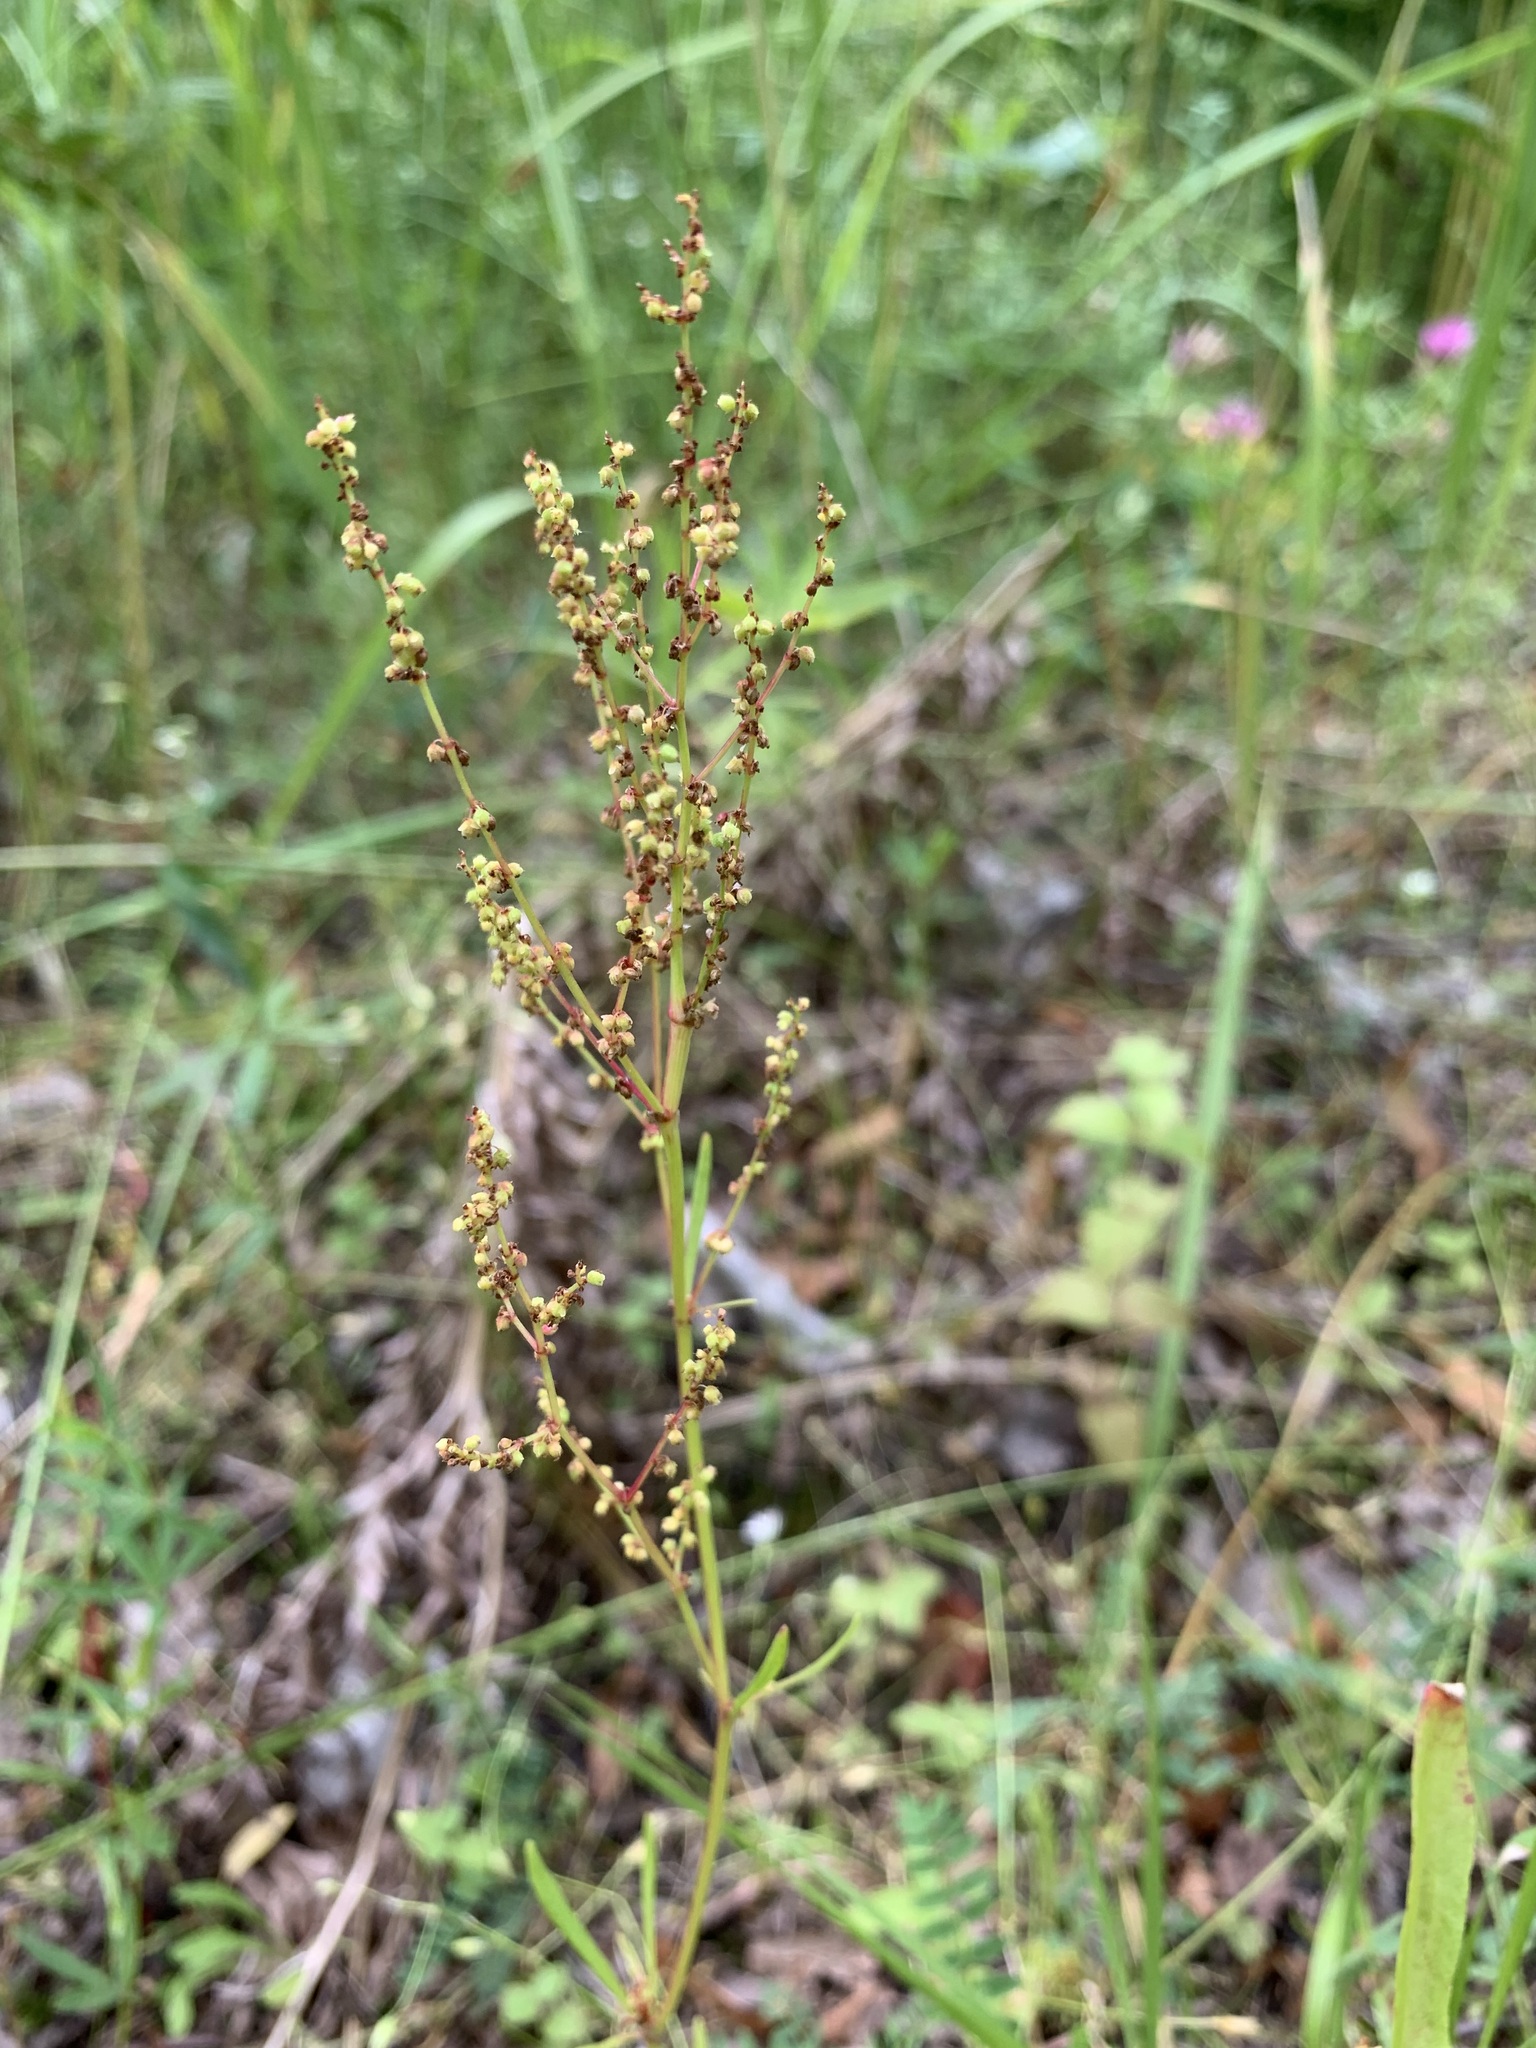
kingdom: Plantae
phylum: Tracheophyta
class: Magnoliopsida
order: Caryophyllales
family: Polygonaceae
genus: Rumex
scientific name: Rumex acetosella
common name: Common sheep sorrel
